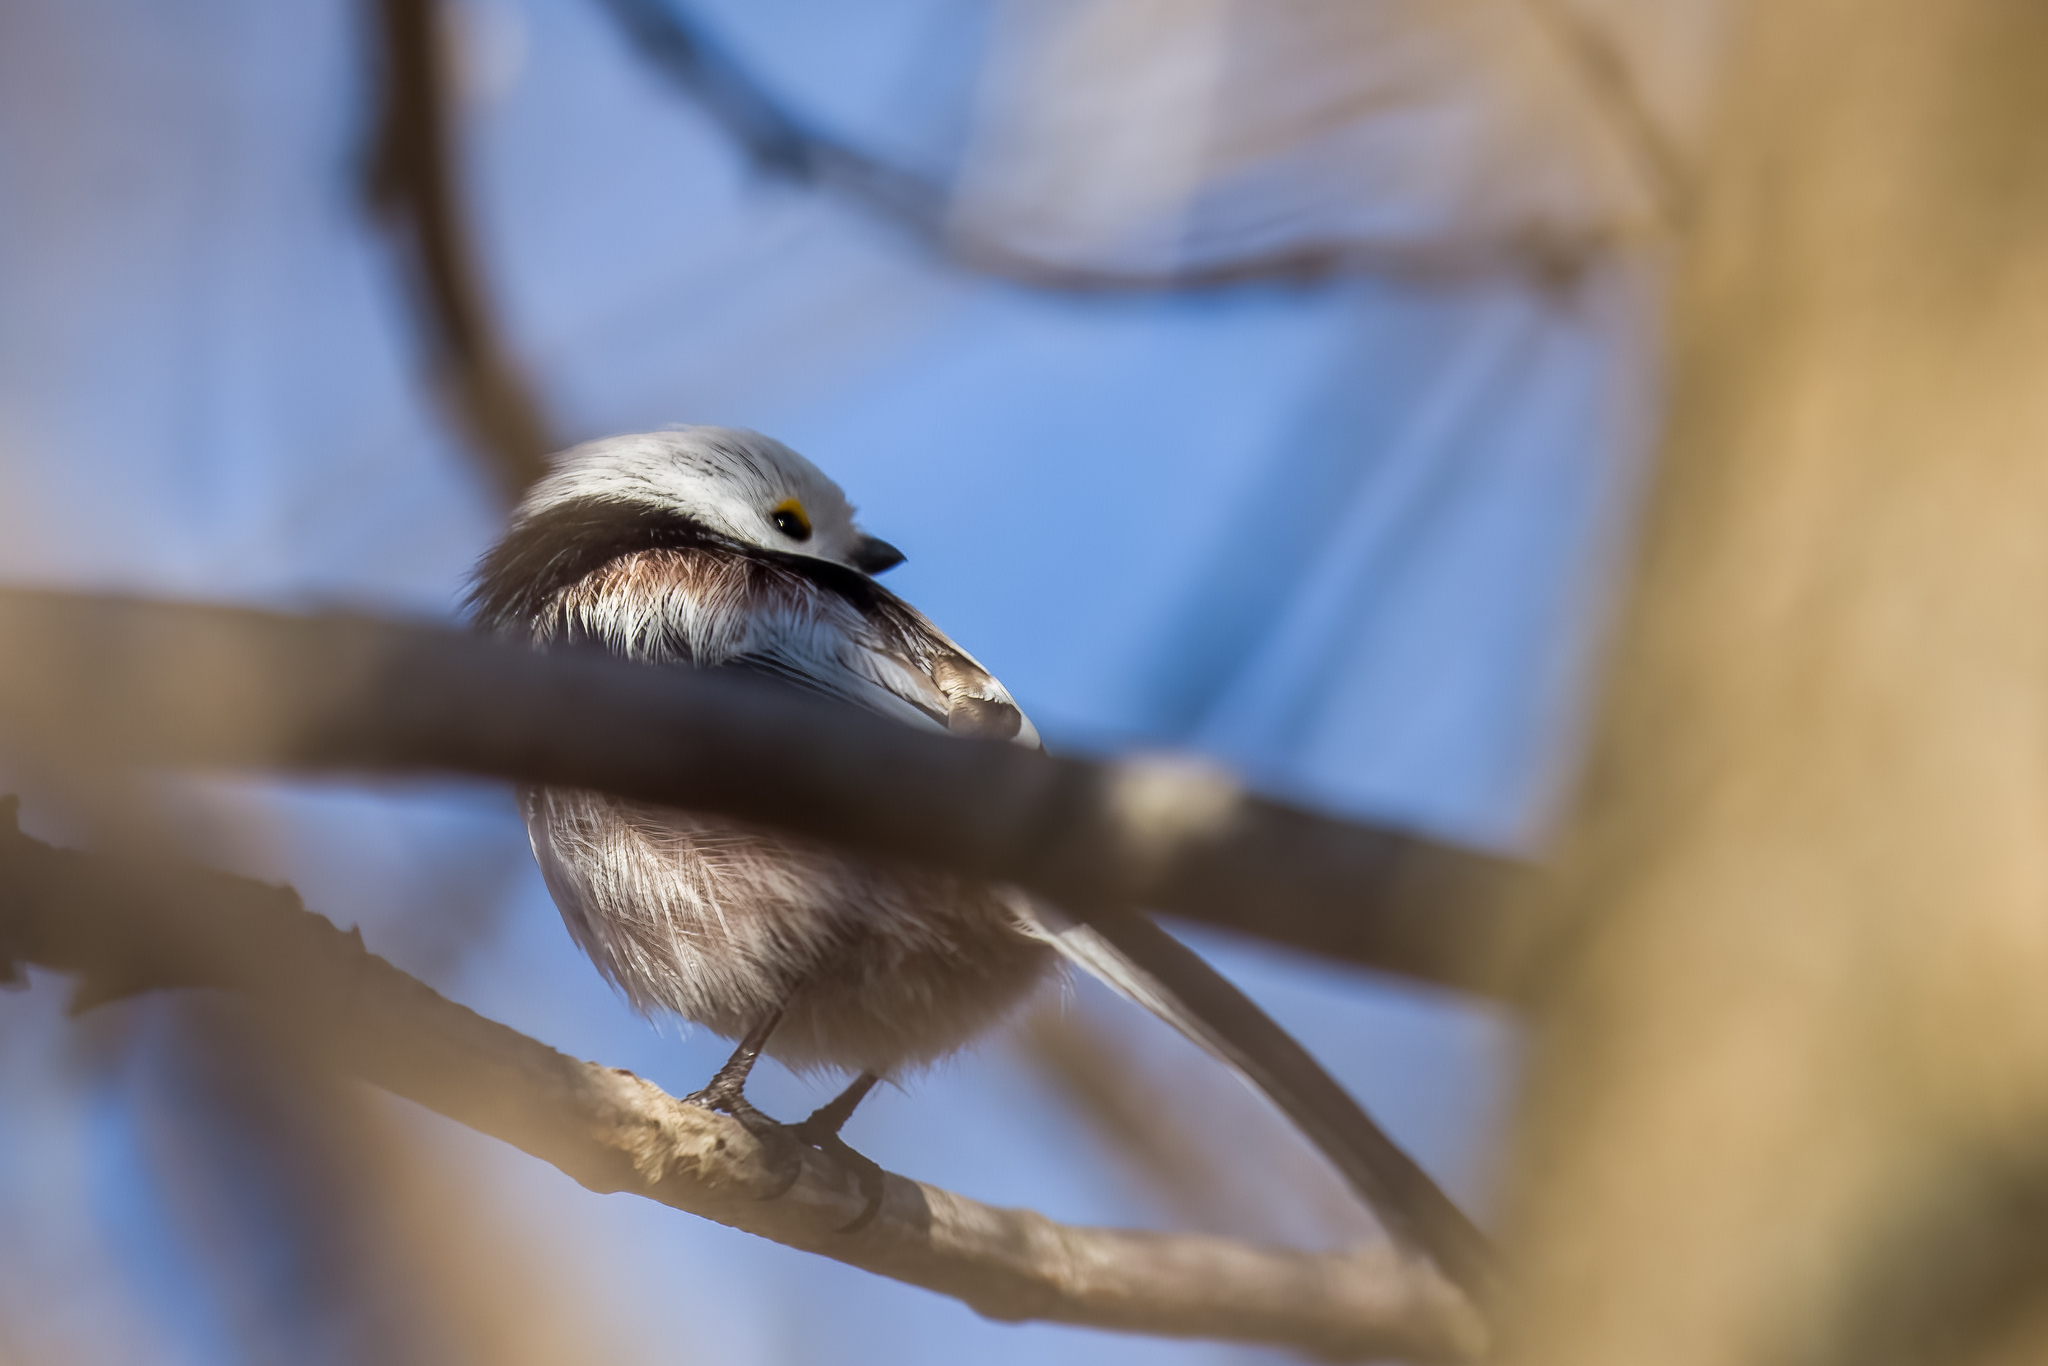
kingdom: Animalia
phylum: Chordata
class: Aves
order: Passeriformes
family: Aegithalidae
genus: Aegithalos
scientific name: Aegithalos caudatus
